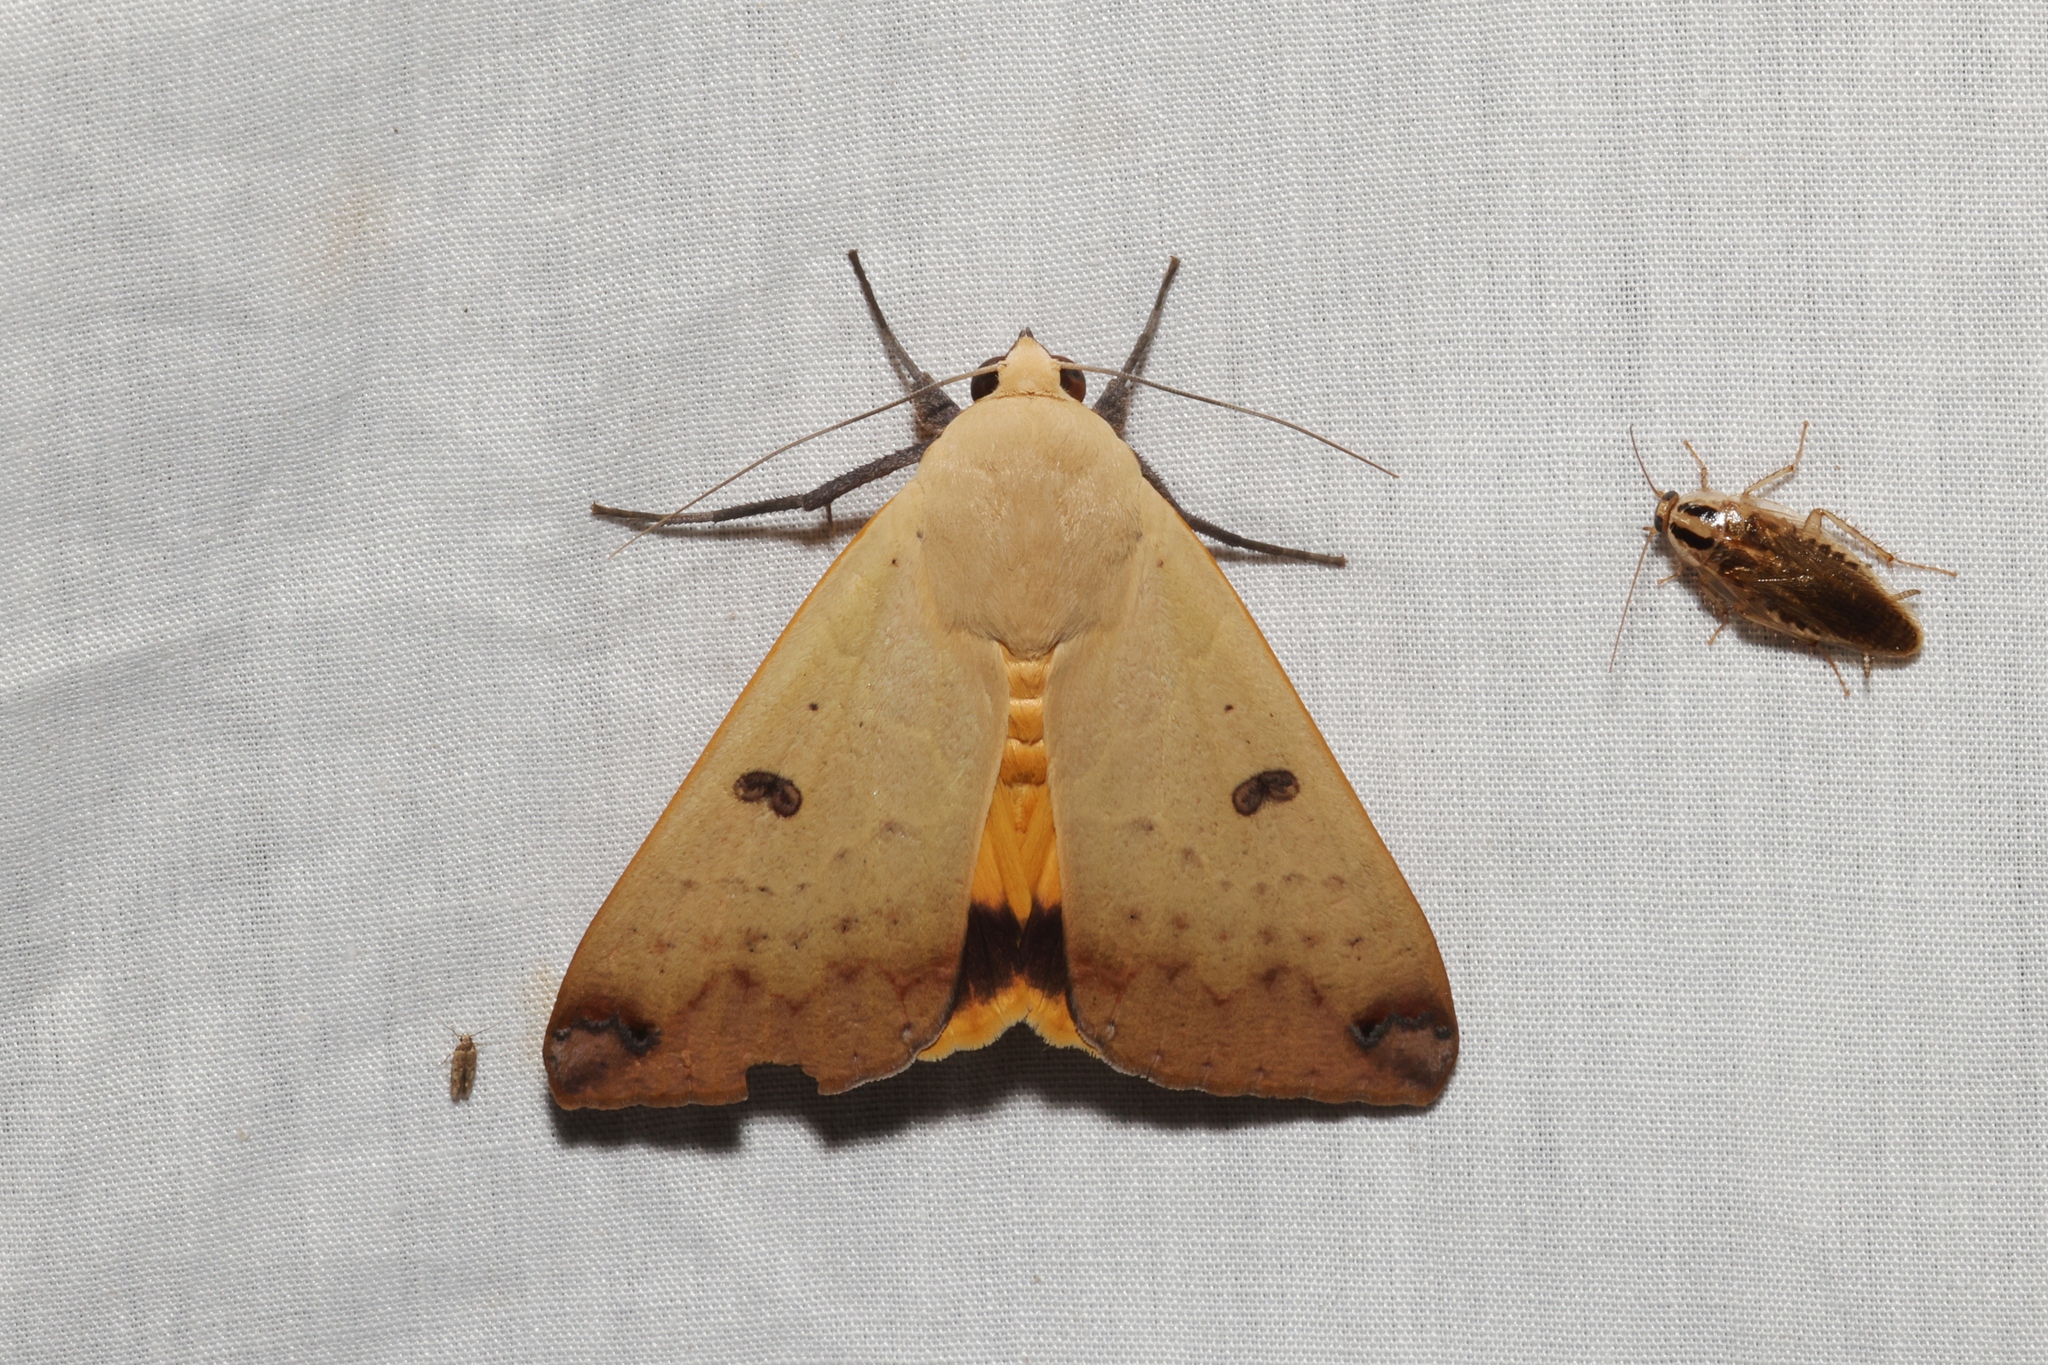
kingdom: Animalia
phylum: Arthropoda
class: Insecta
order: Lepidoptera
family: Erebidae
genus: Ophiusa
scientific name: Ophiusa disjungens
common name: Moth
